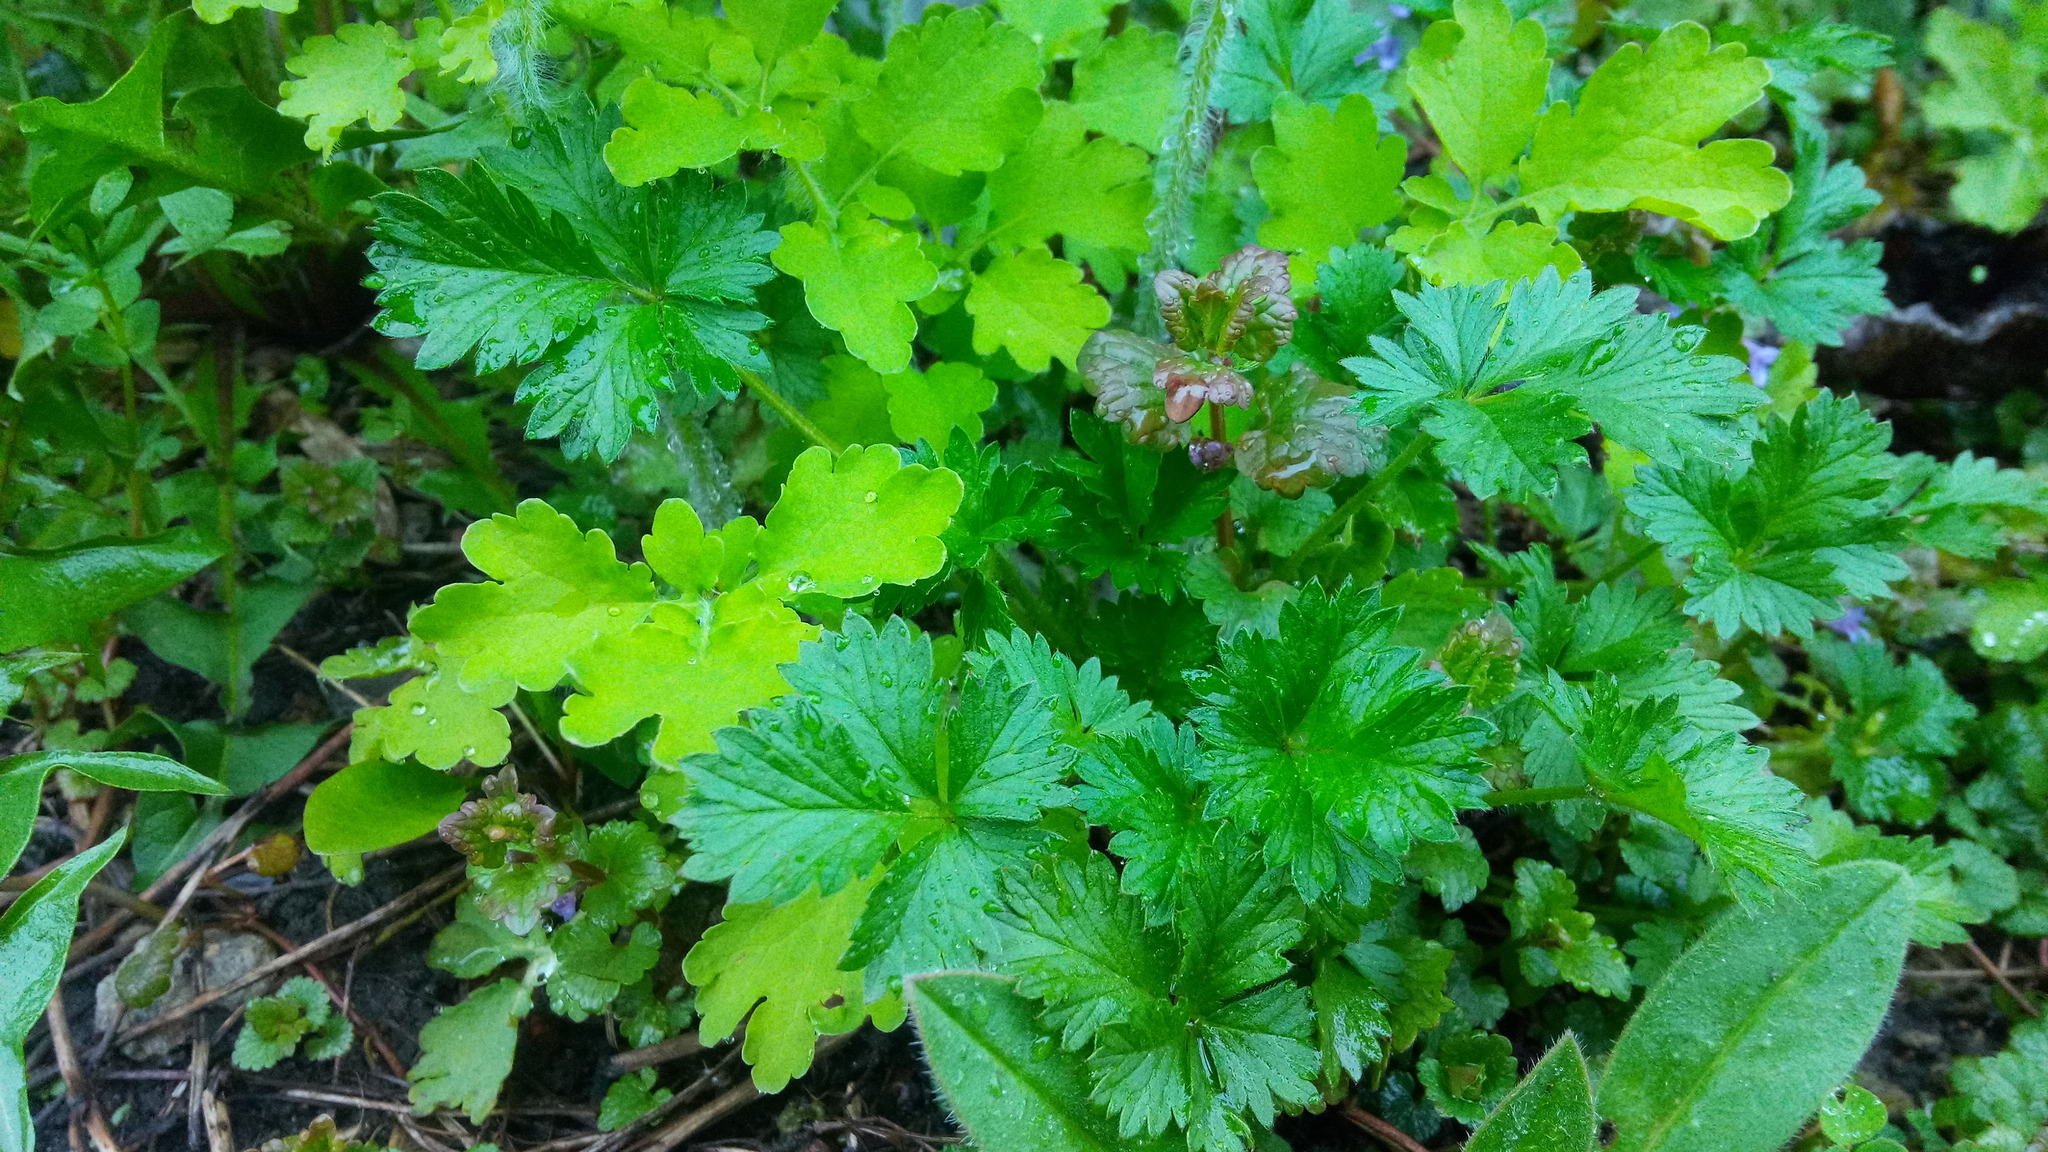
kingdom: Plantae
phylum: Tracheophyta
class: Magnoliopsida
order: Rosales
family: Rosaceae
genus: Potentilla
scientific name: Potentilla intermedia
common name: Downy cinquefoil
